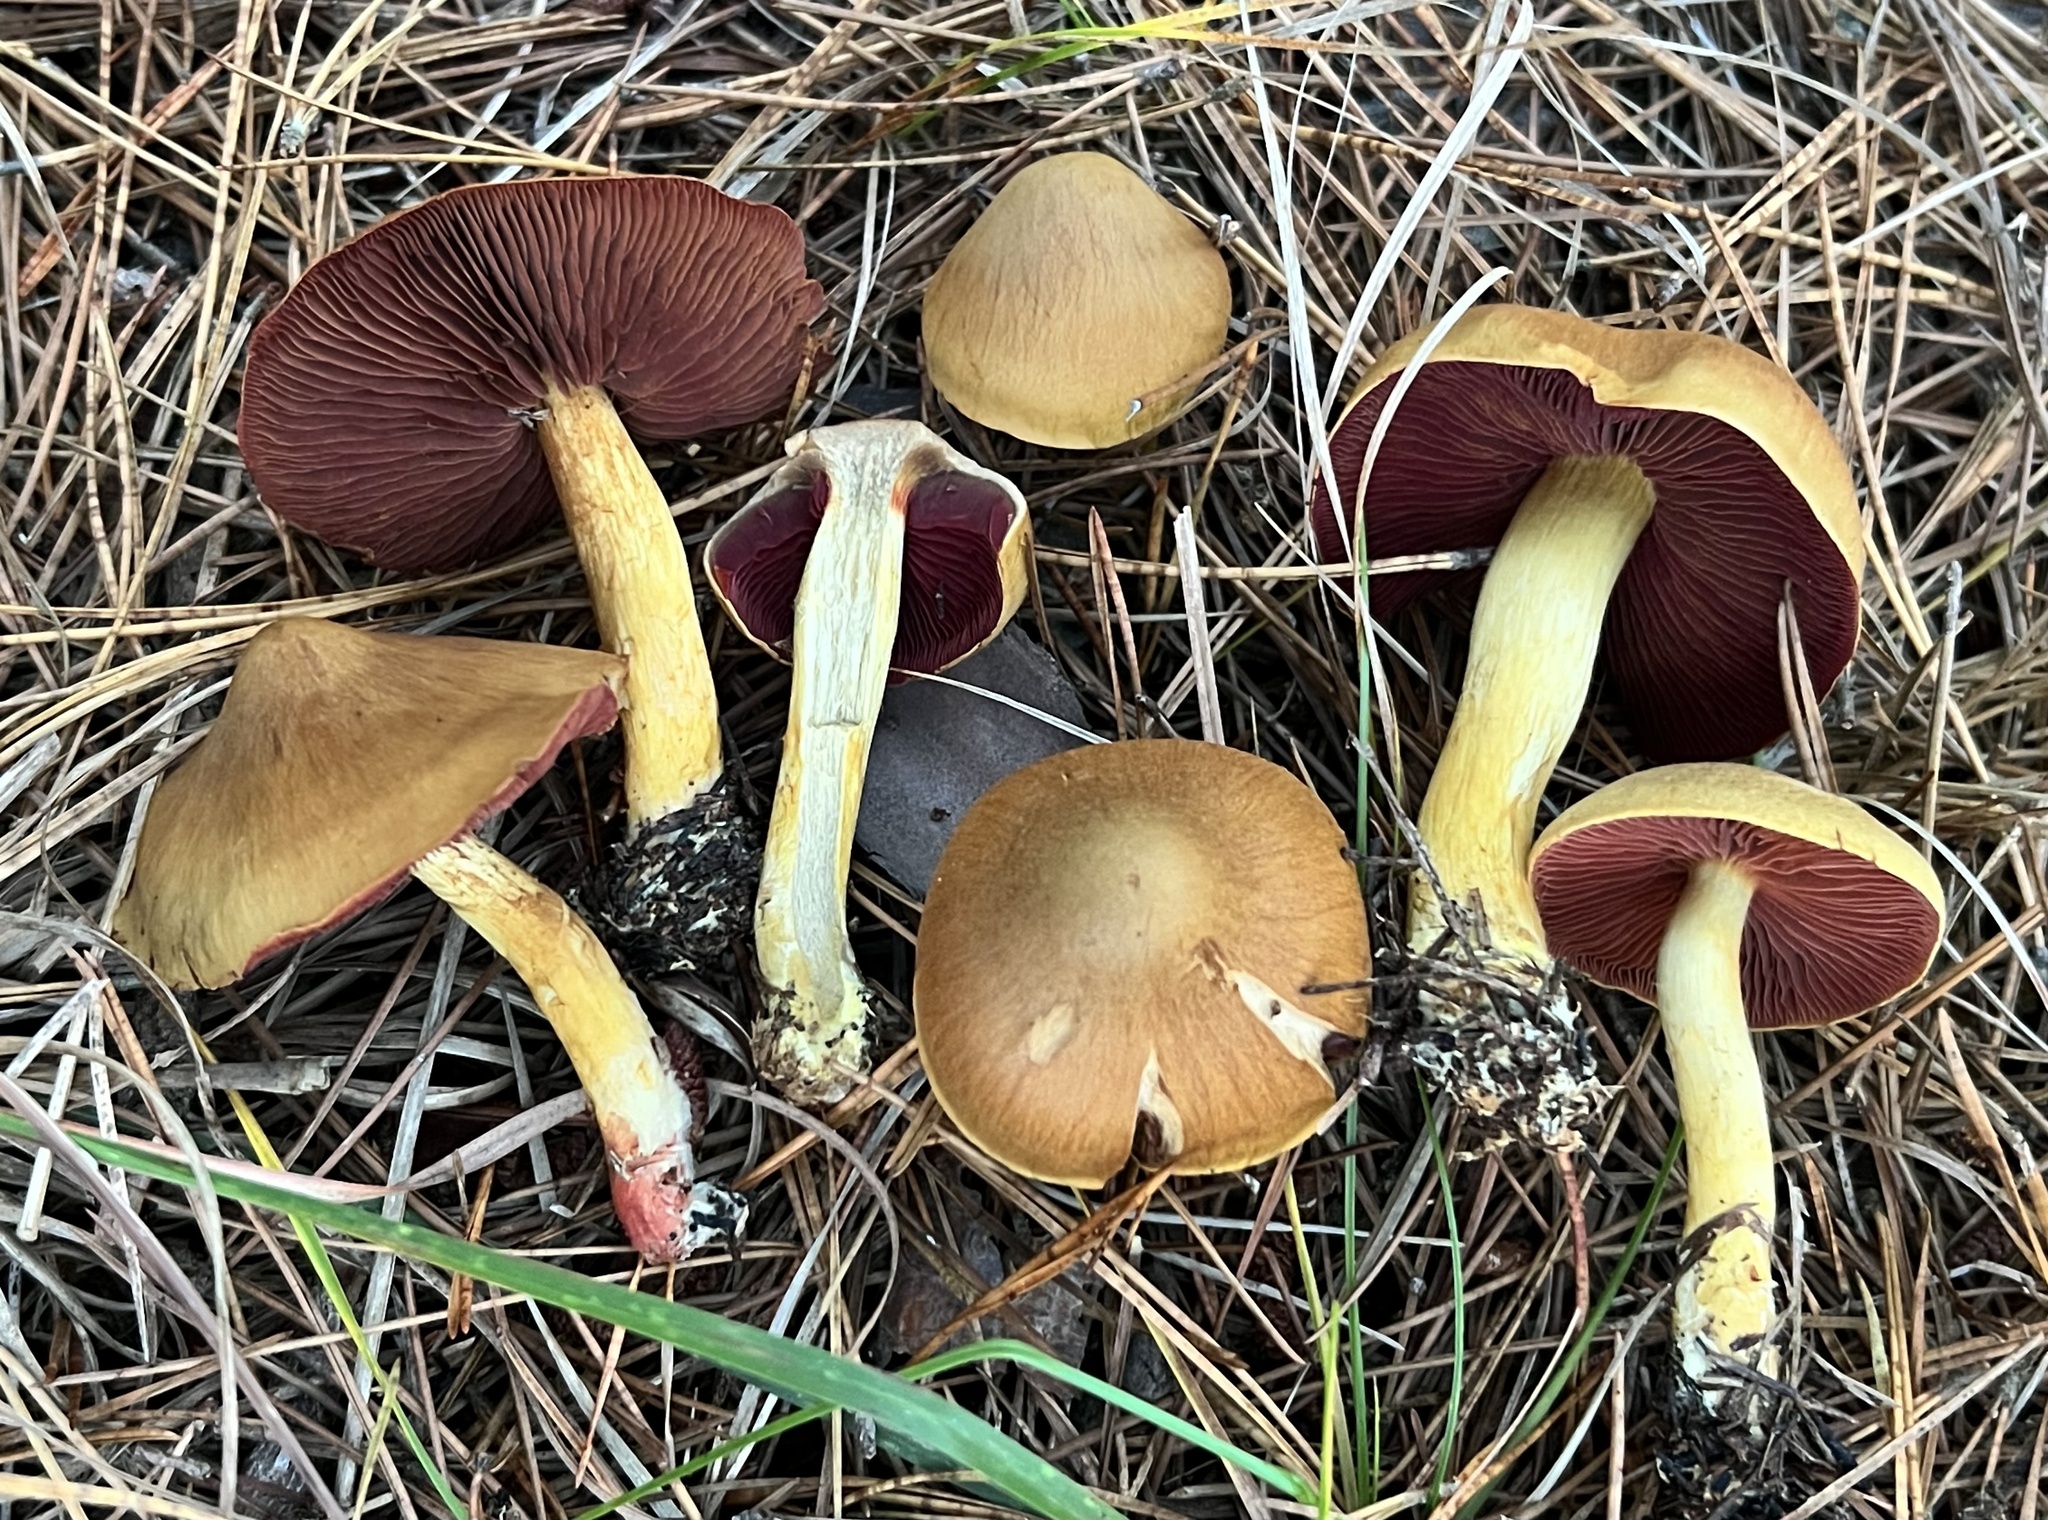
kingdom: Fungi
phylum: Basidiomycota
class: Agaricomycetes
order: Agaricales
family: Cortinariaceae
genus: Cortinarius
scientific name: Cortinarius tinctorum
